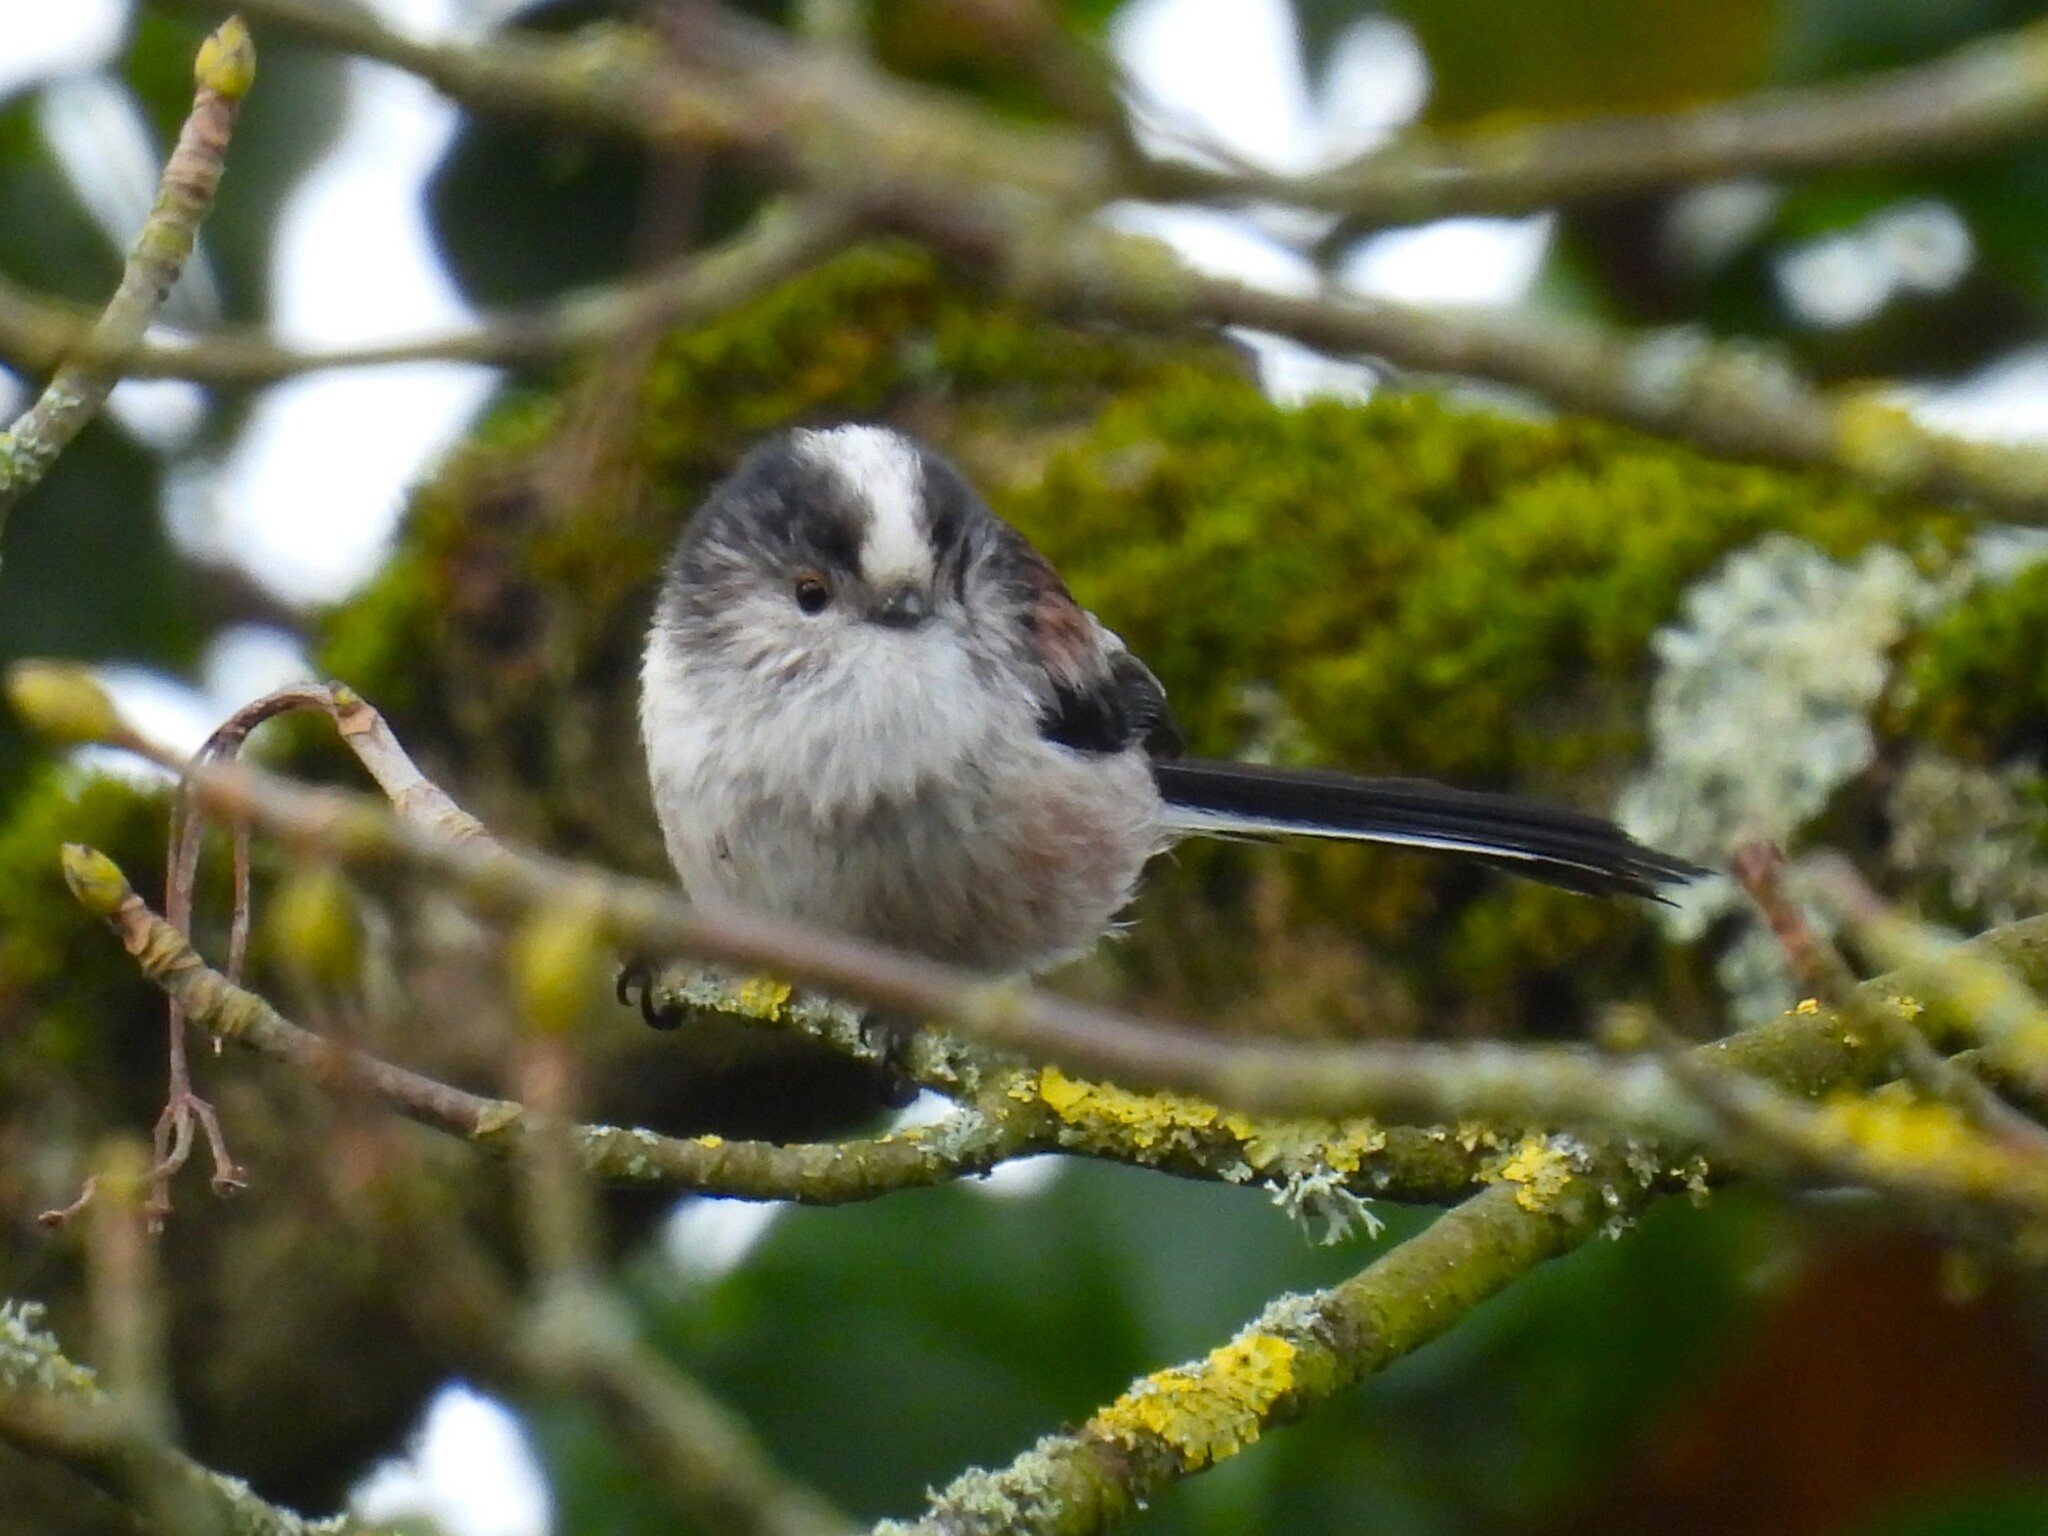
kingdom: Animalia
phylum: Chordata
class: Aves
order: Passeriformes
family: Aegithalidae
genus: Aegithalos
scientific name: Aegithalos caudatus
